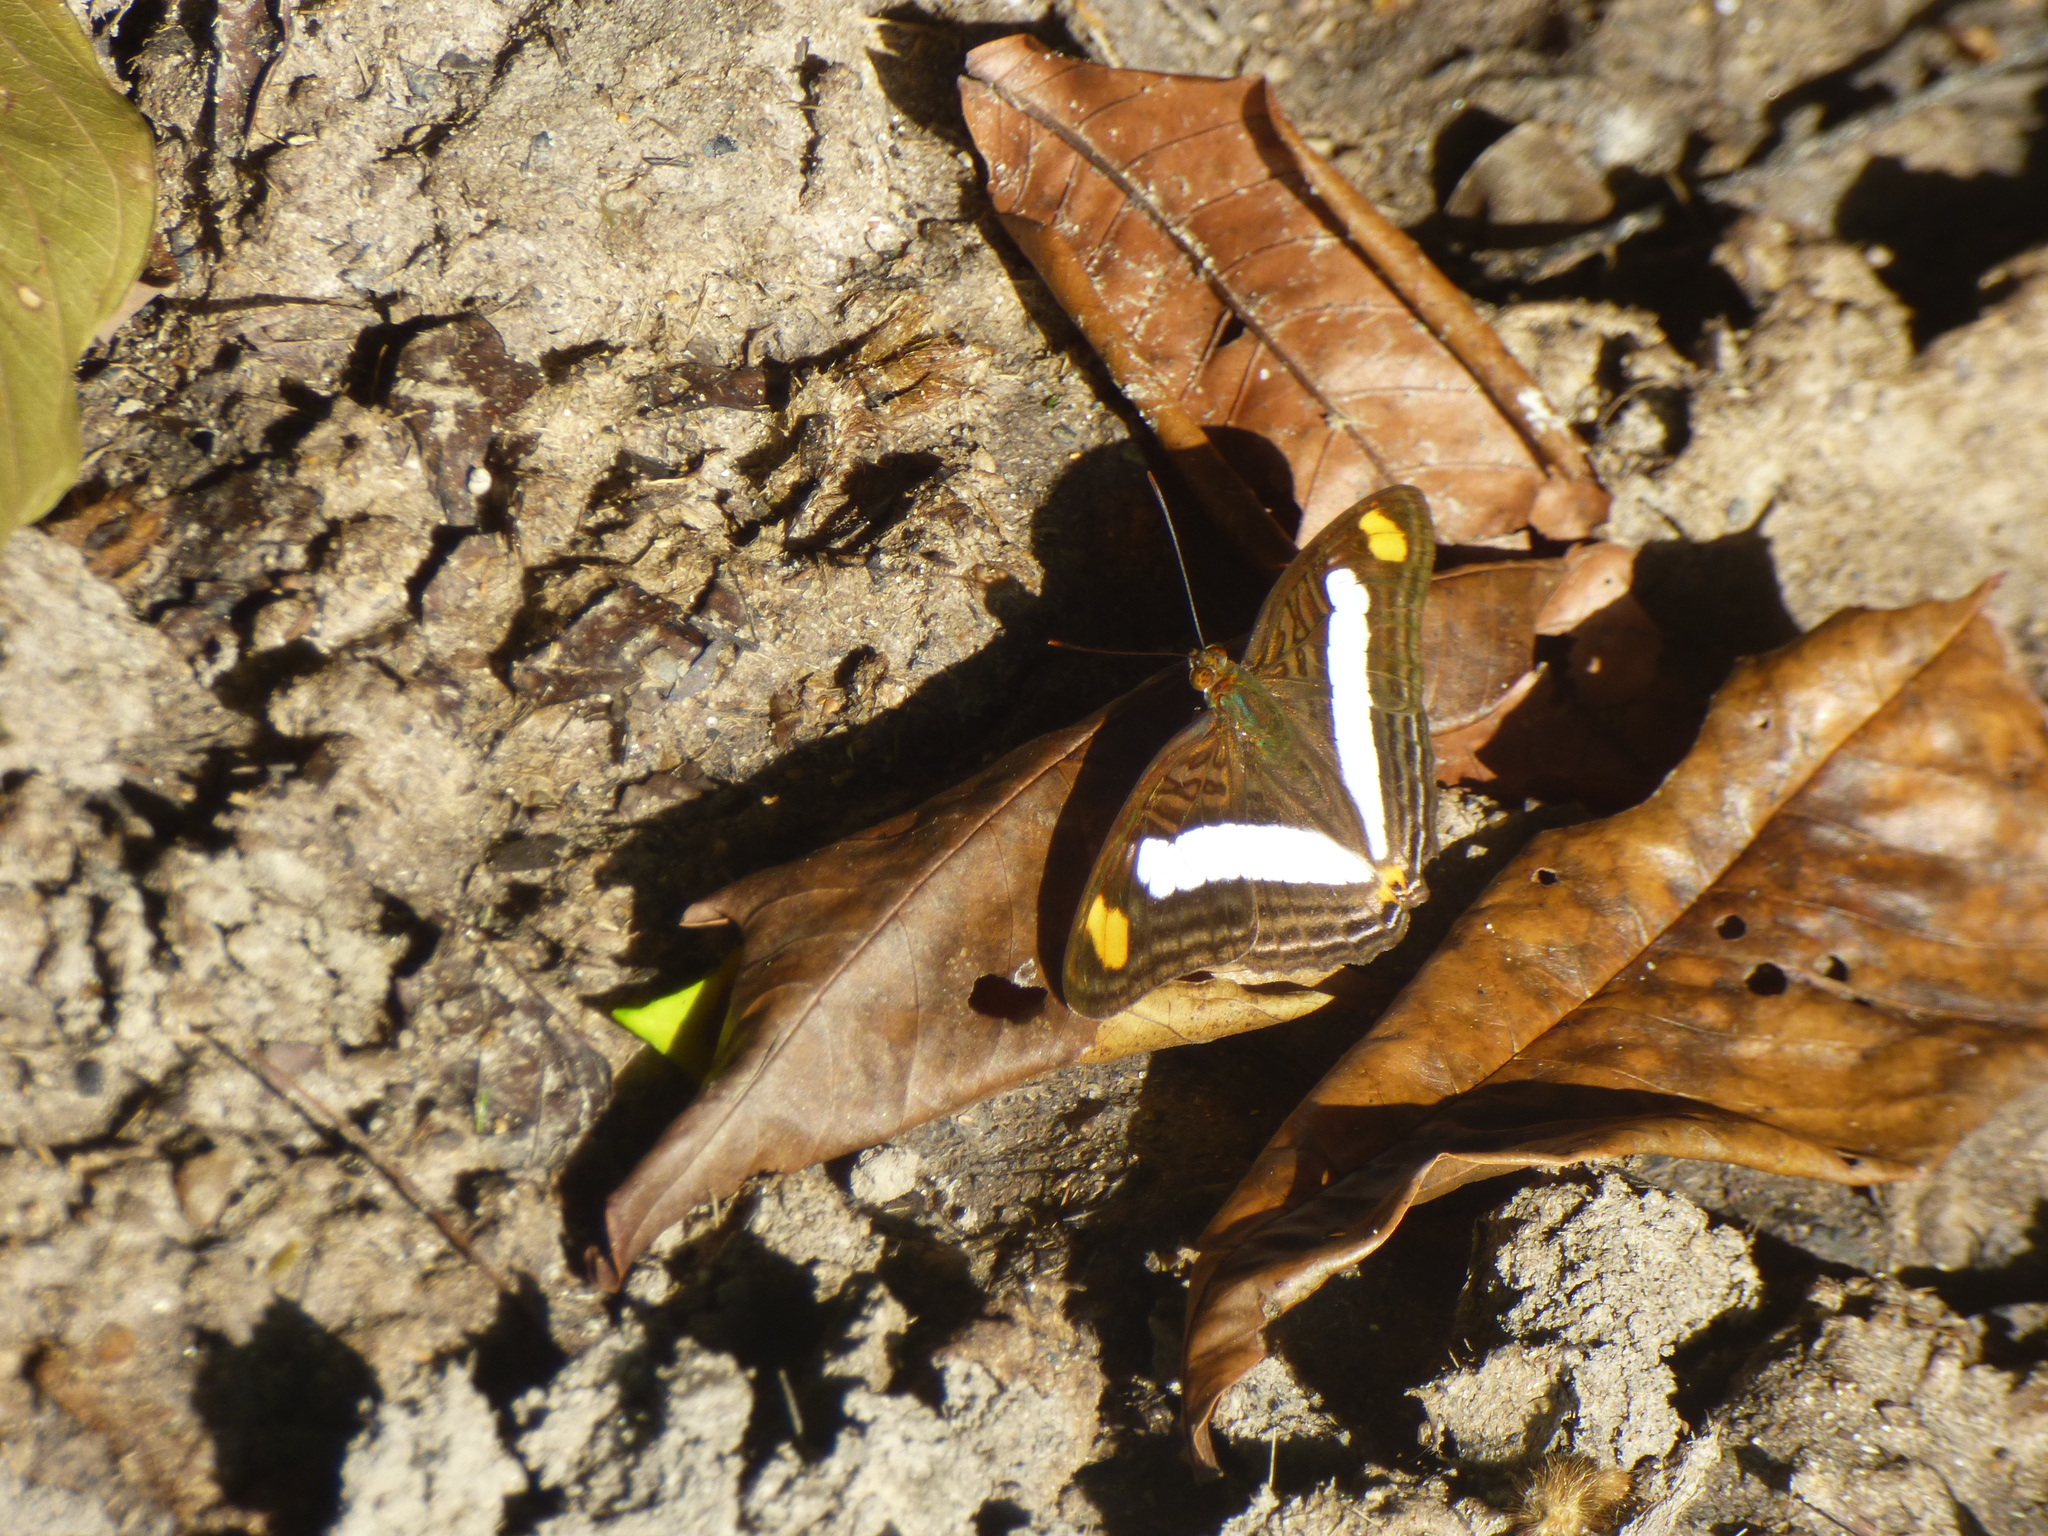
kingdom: Animalia
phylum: Arthropoda
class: Insecta
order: Lepidoptera
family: Nymphalidae
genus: Limenitis
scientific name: Limenitis Adelpha basiloides
